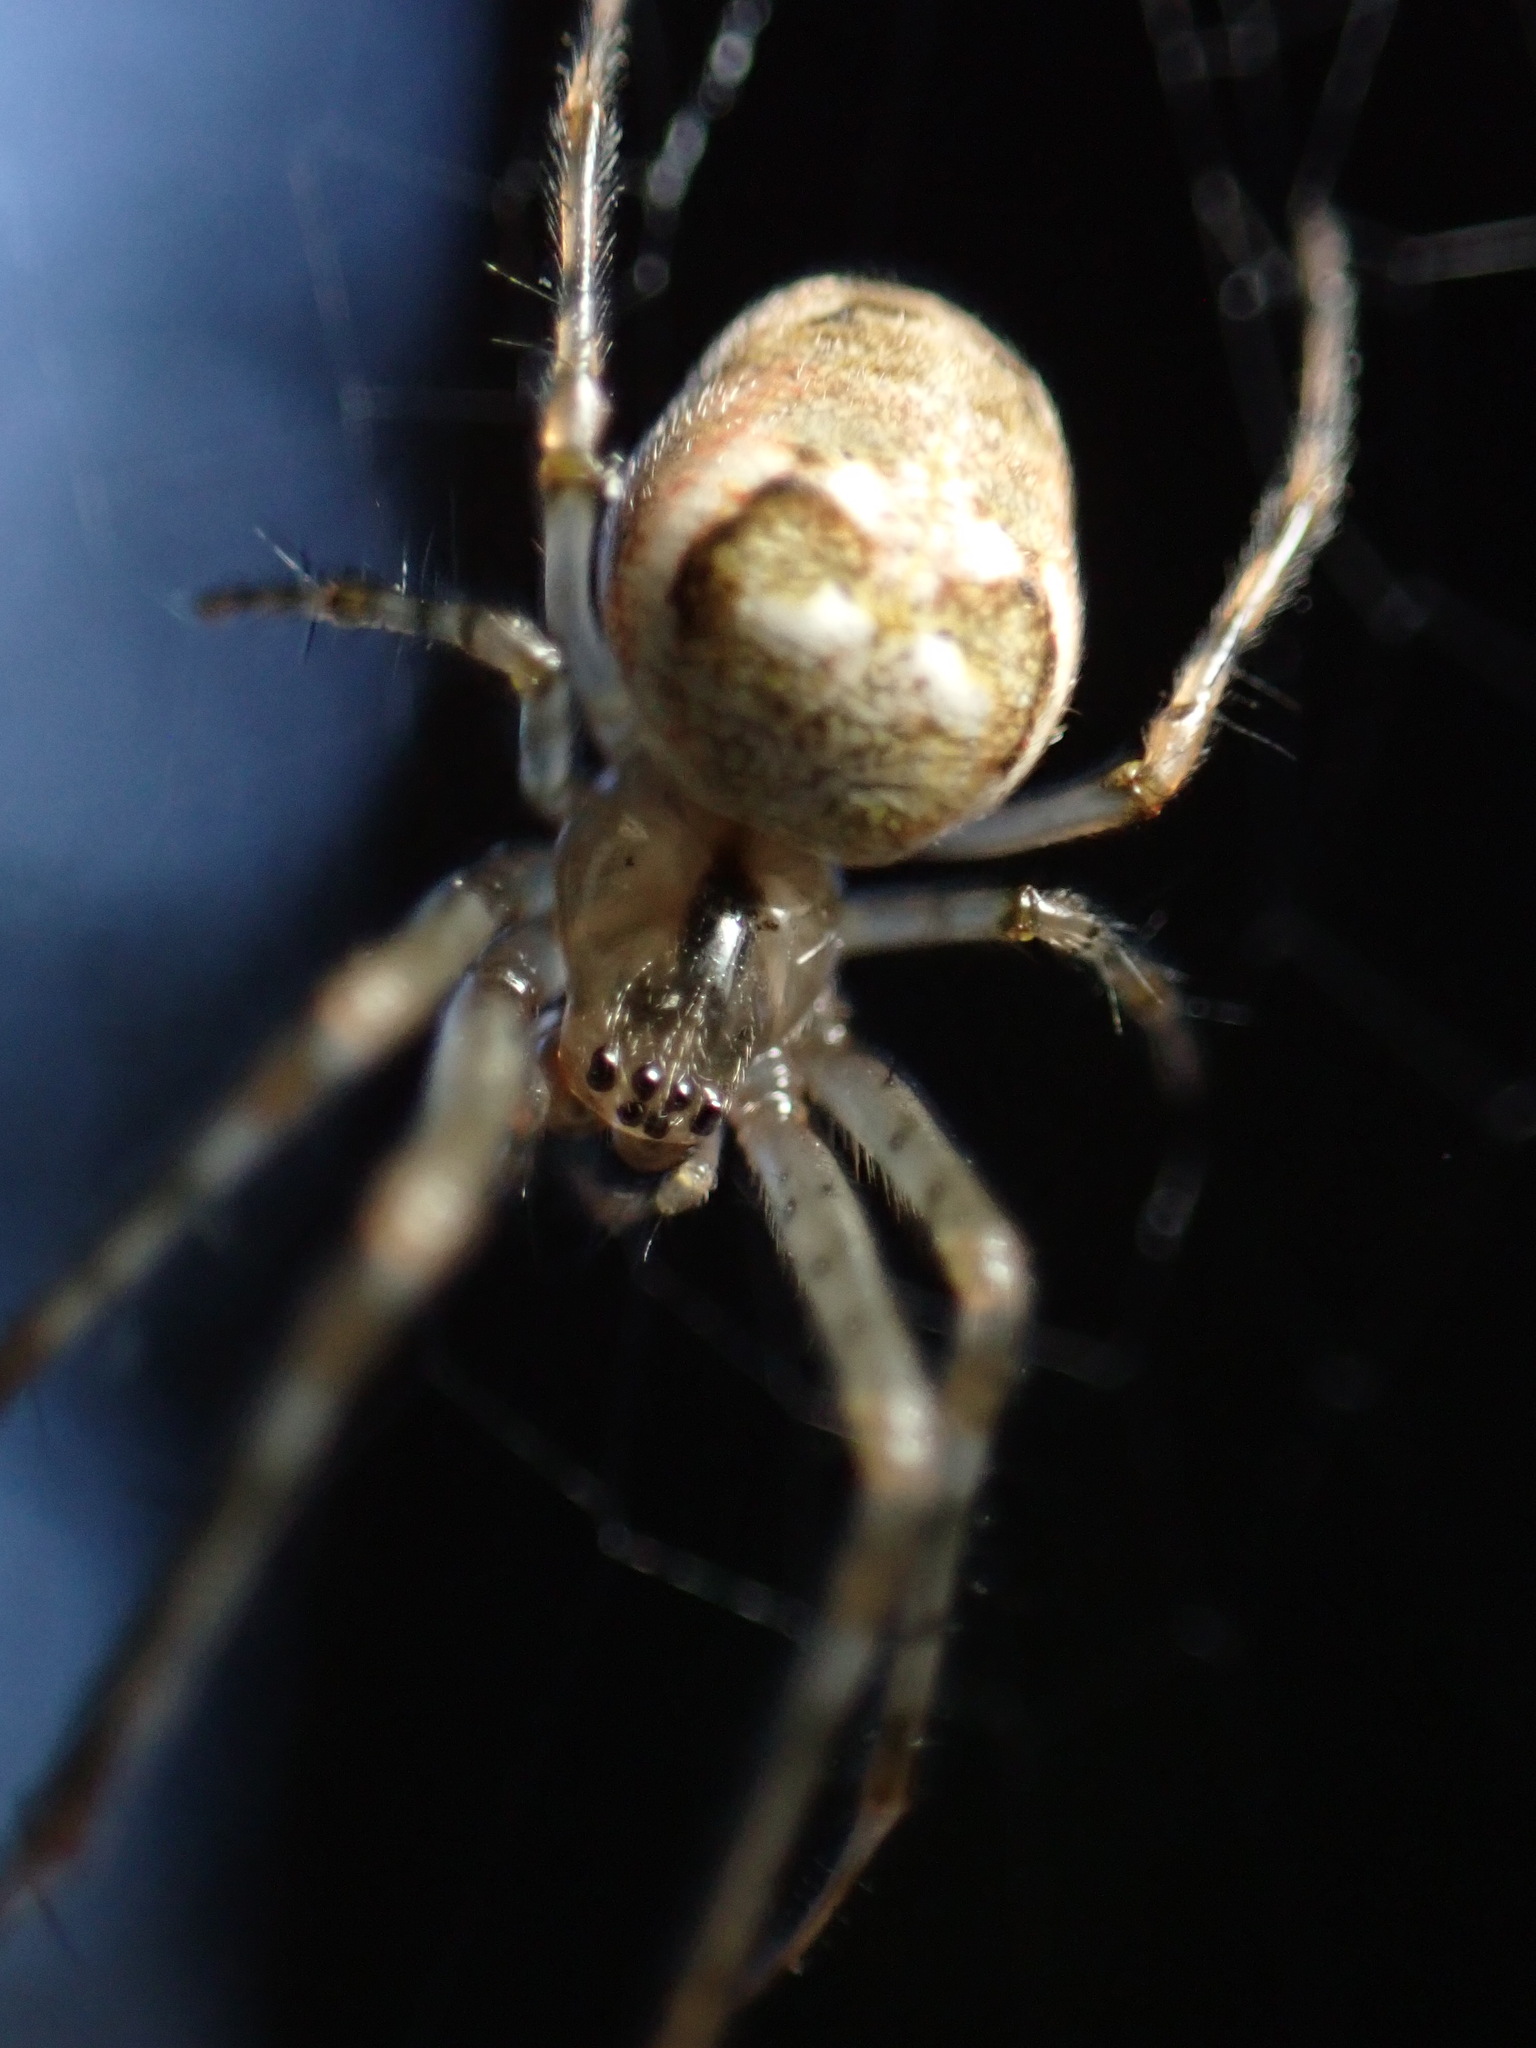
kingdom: Animalia
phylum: Arthropoda
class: Arachnida
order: Araneae
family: Tetragnathidae
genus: Metellina
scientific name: Metellina segmentata
